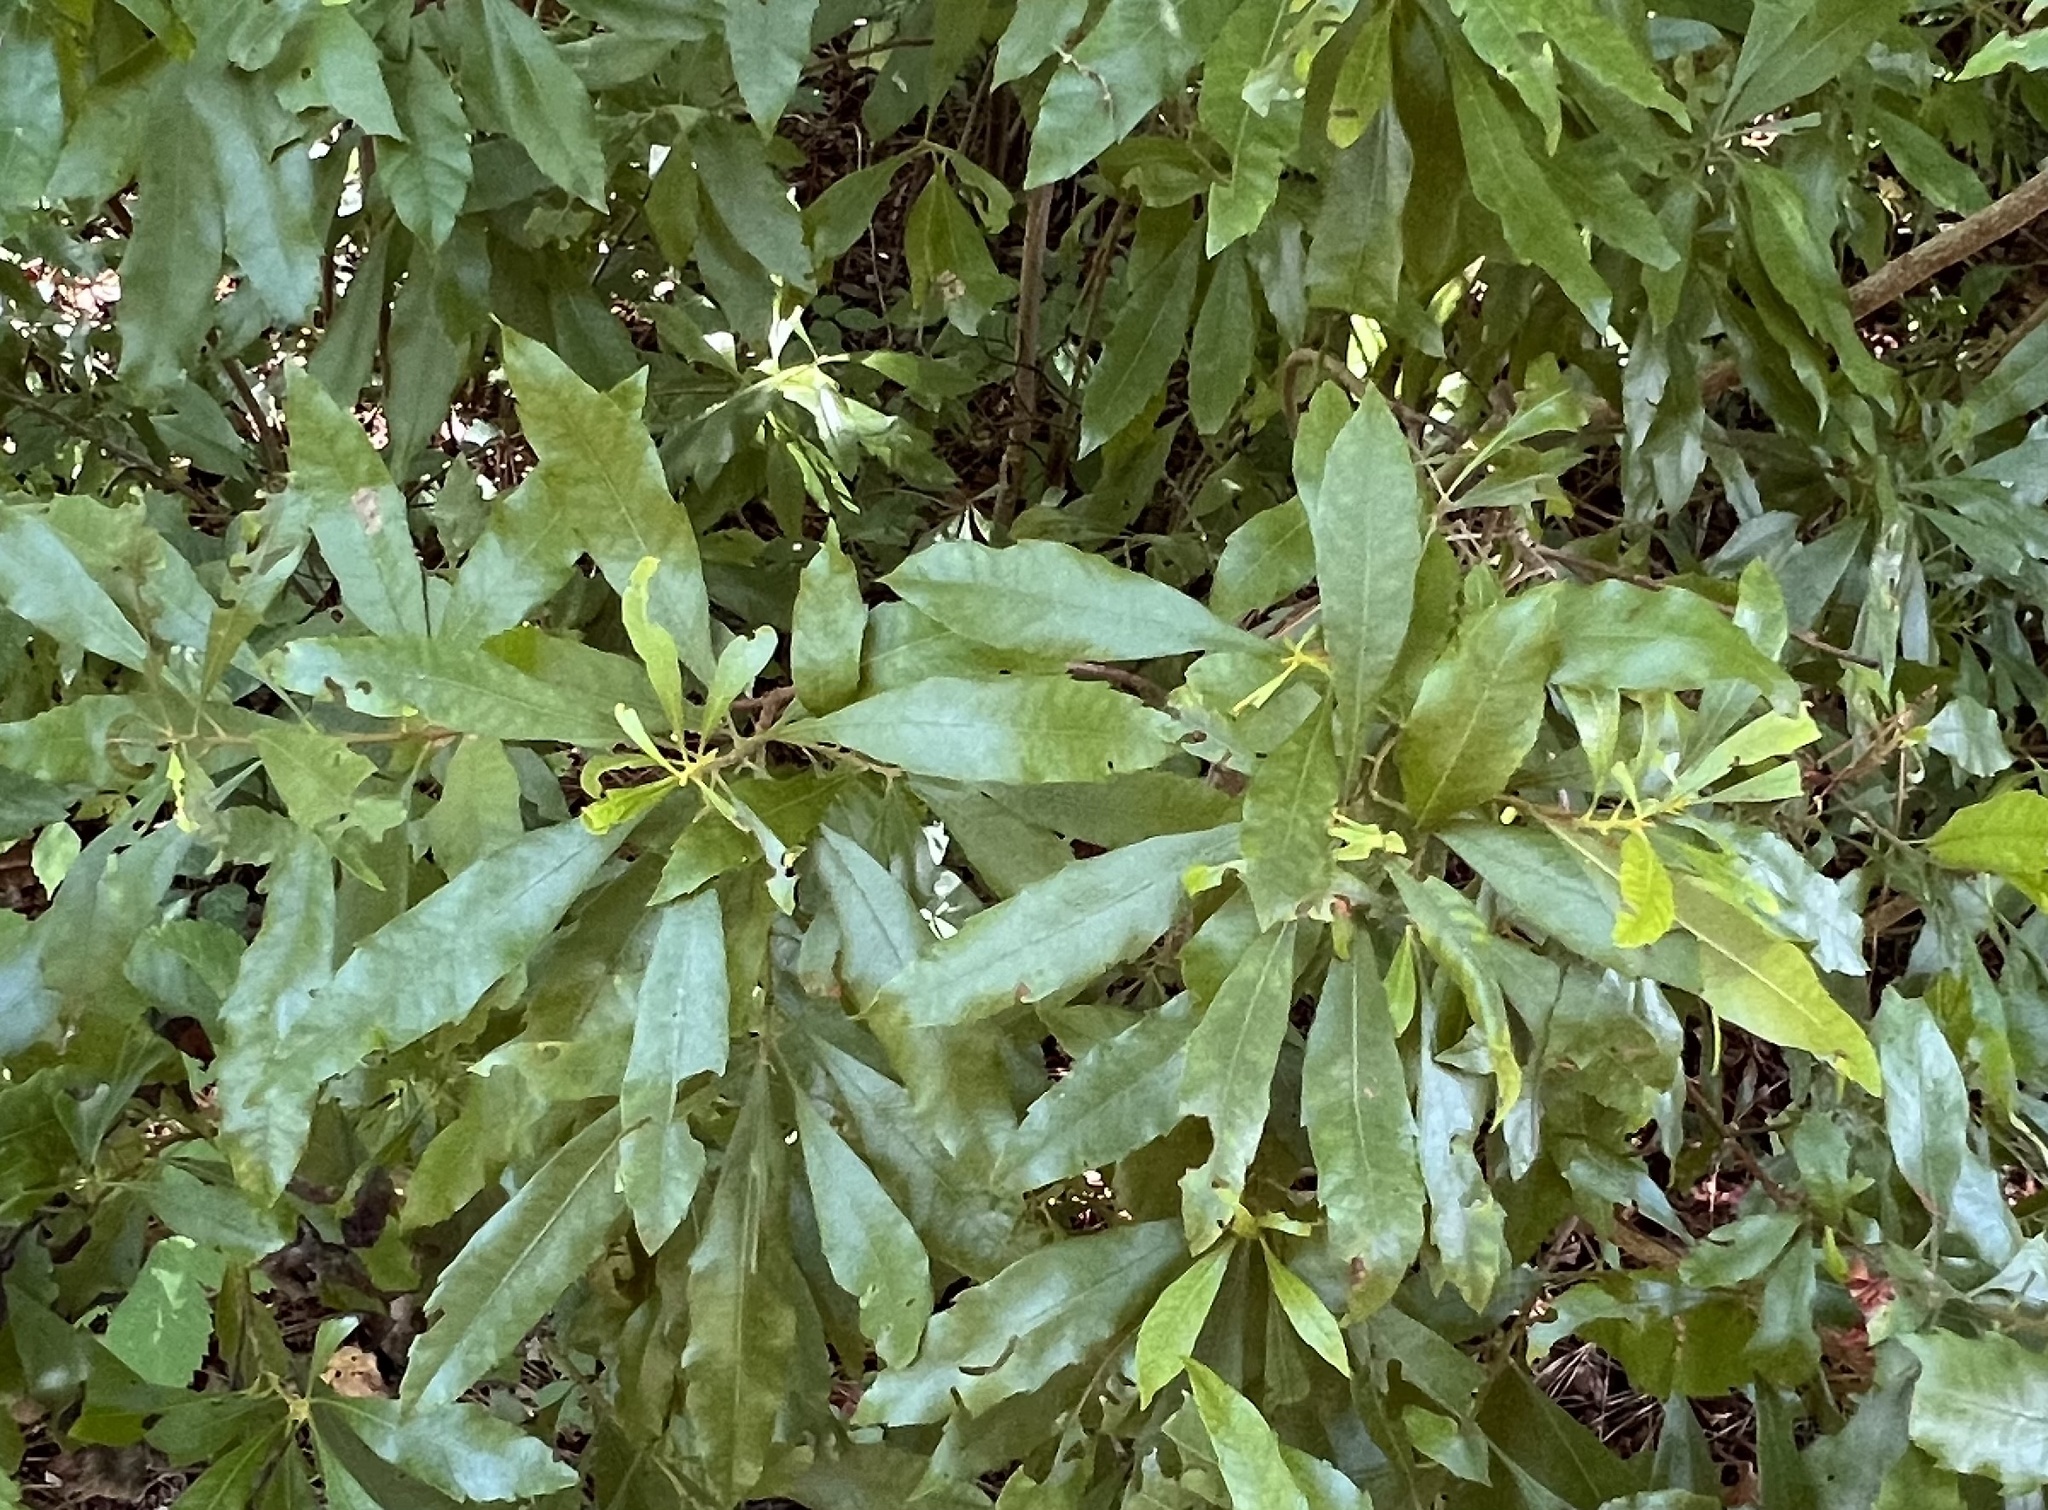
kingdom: Plantae
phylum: Tracheophyta
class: Magnoliopsida
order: Fagales
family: Myricaceae
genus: Morella
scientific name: Morella cerifera
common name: Wax myrtle
